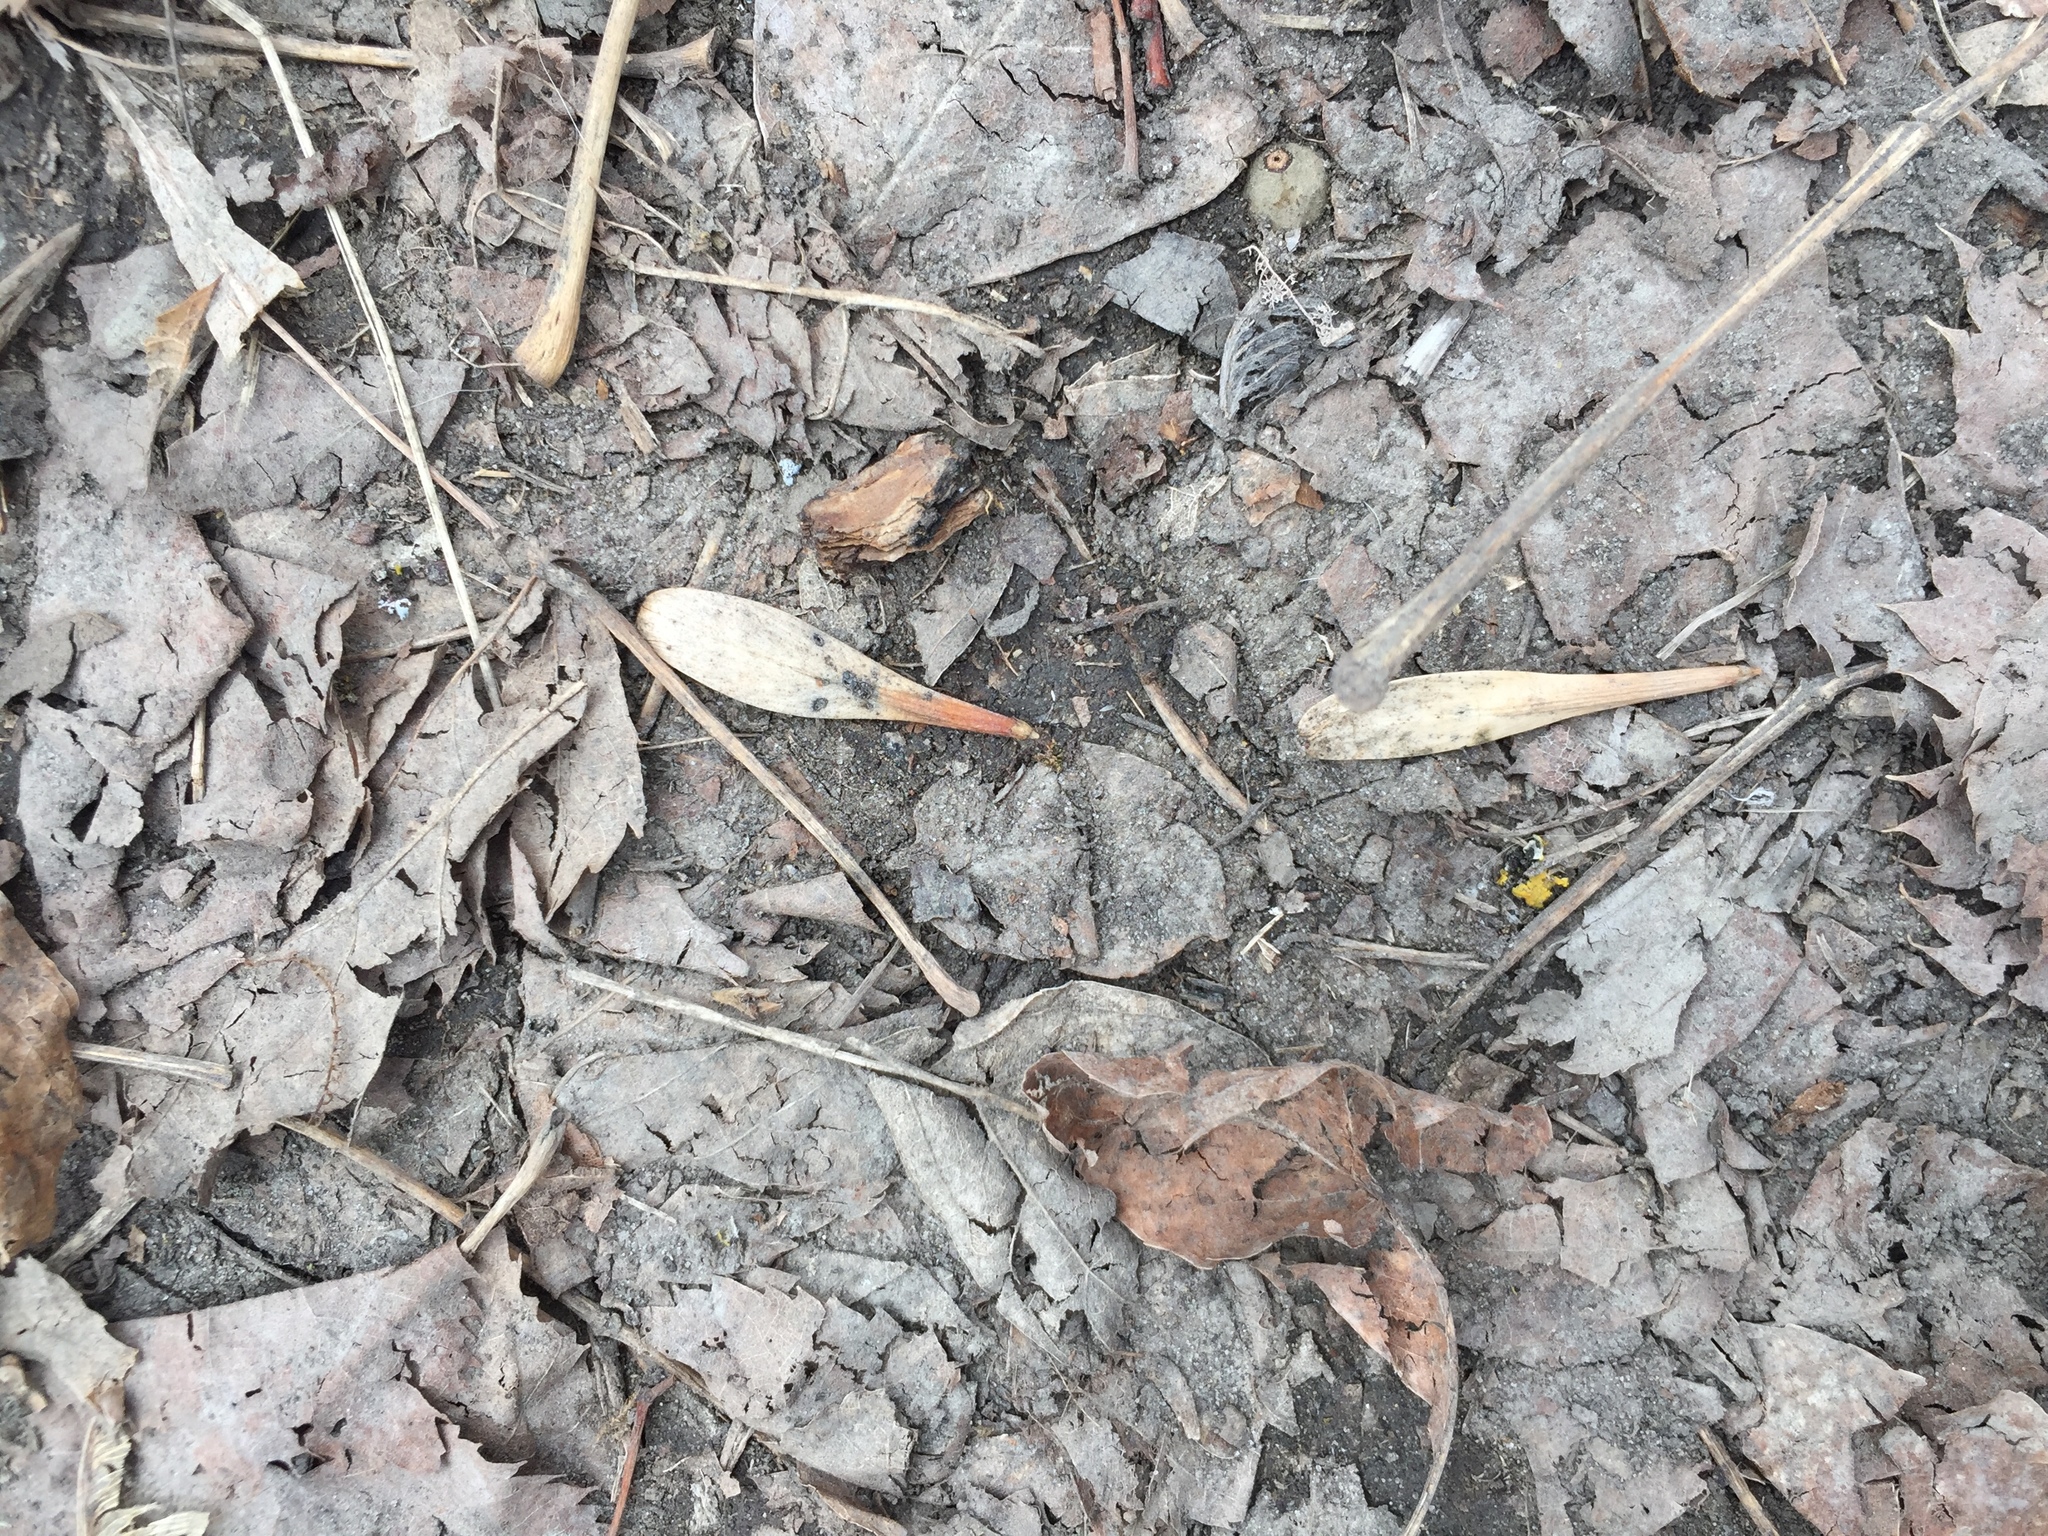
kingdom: Plantae
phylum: Tracheophyta
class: Magnoliopsida
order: Lamiales
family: Oleaceae
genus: Fraxinus
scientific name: Fraxinus pennsylvanica
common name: Green ash
